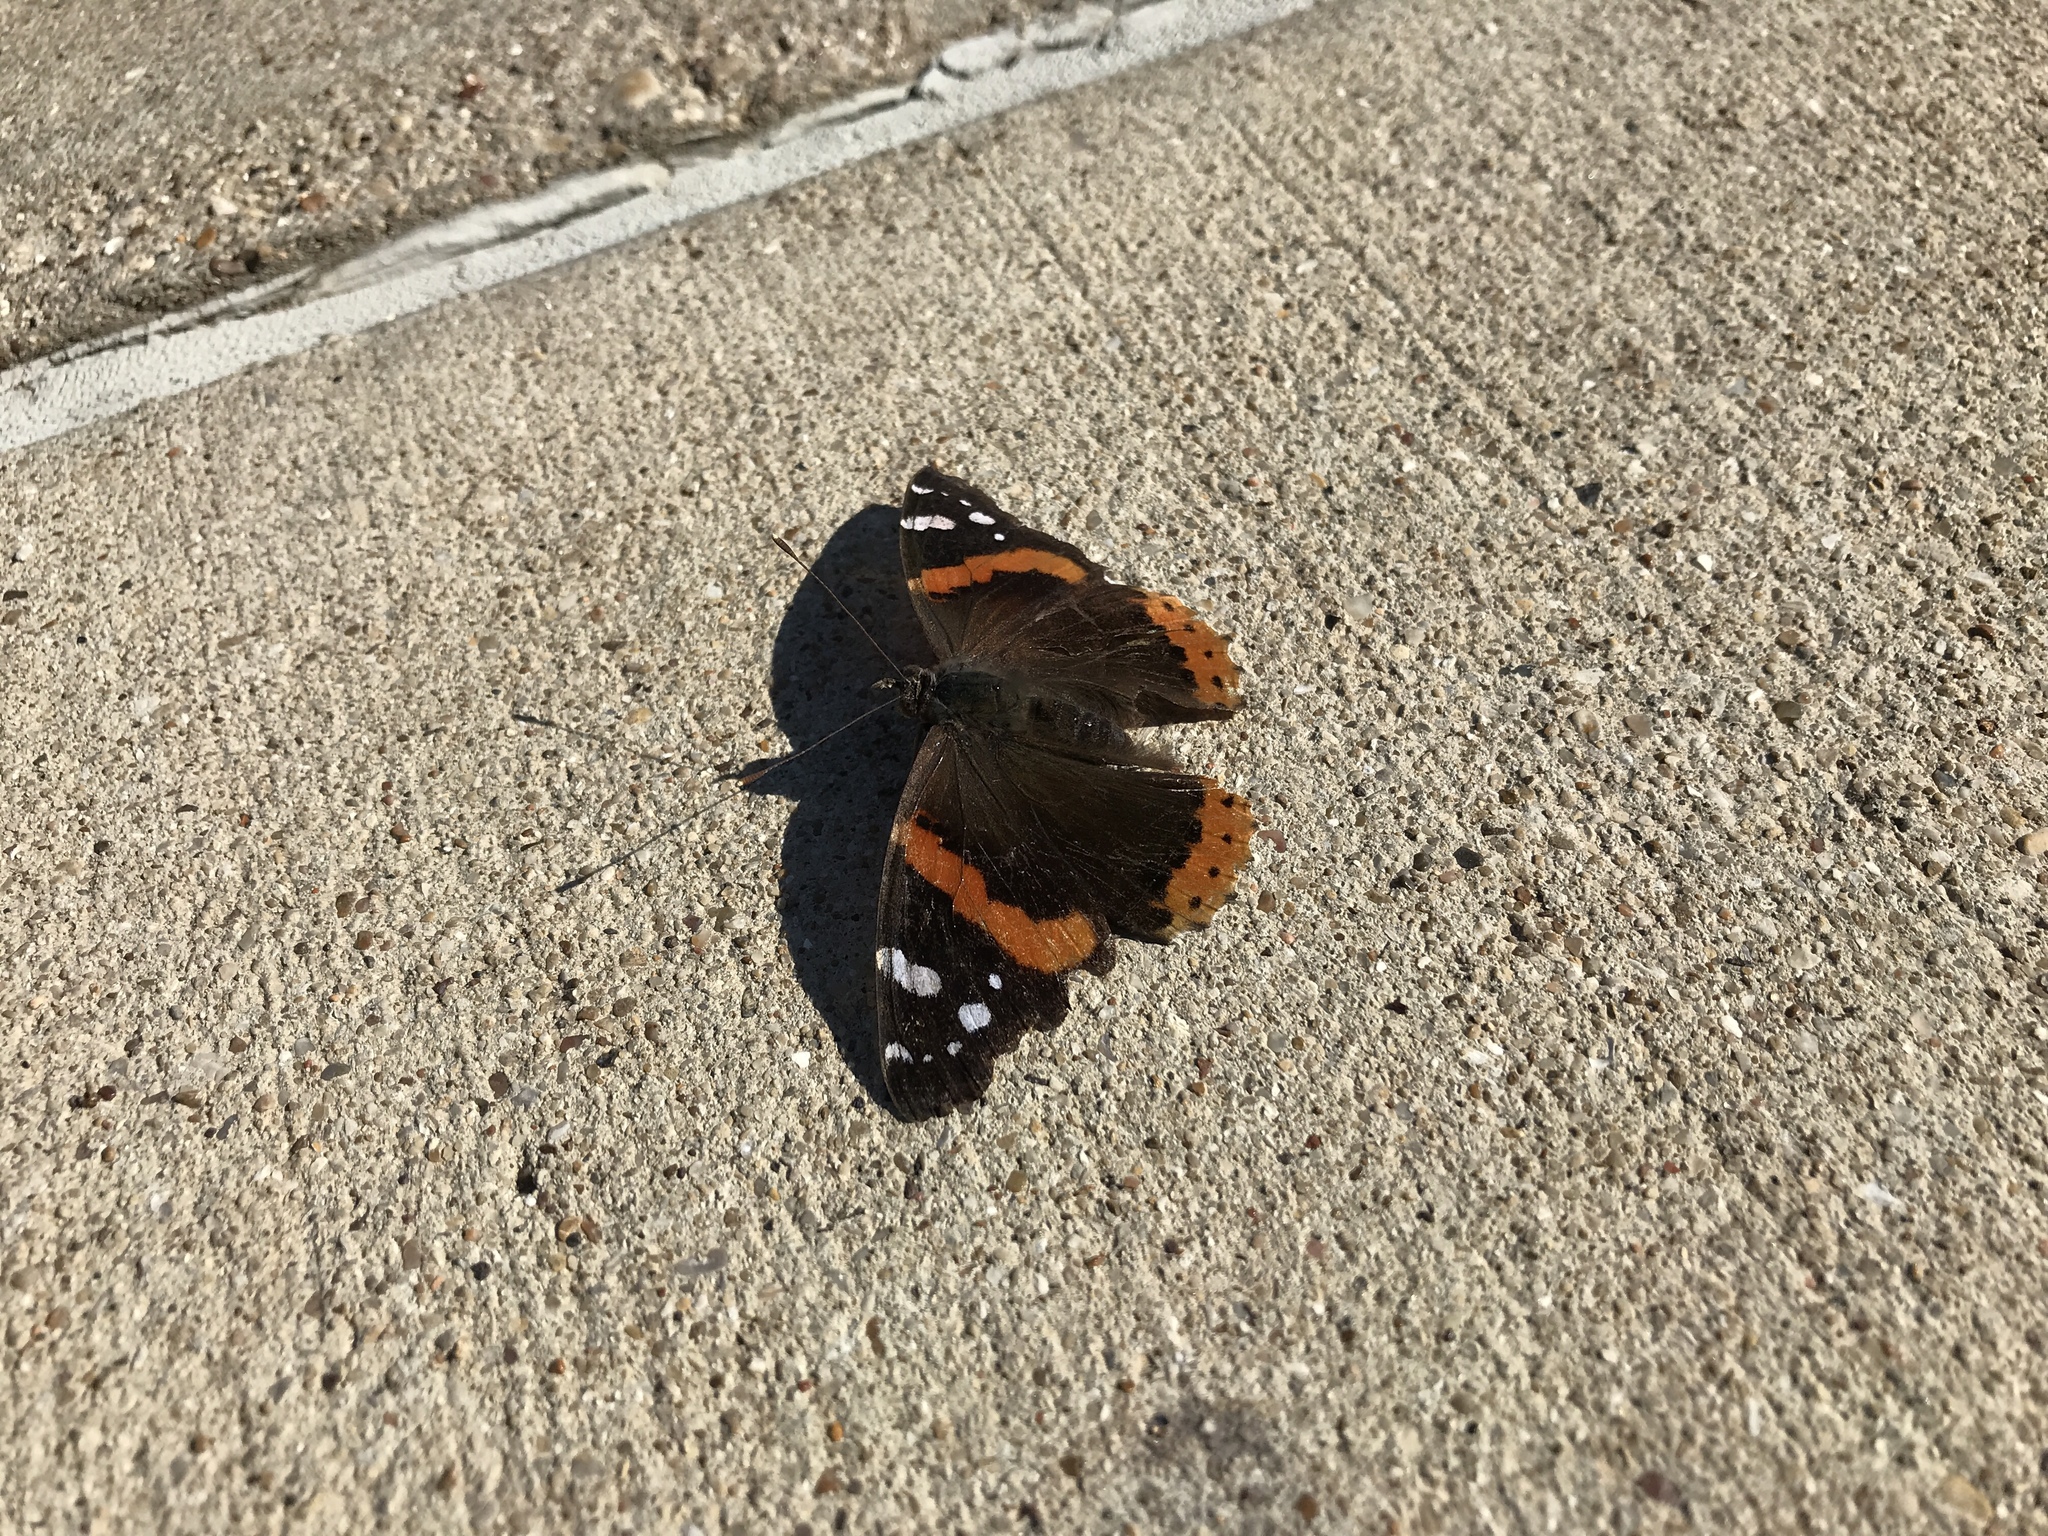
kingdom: Animalia
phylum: Arthropoda
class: Insecta
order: Lepidoptera
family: Nymphalidae
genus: Vanessa
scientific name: Vanessa atalanta
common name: Red admiral
